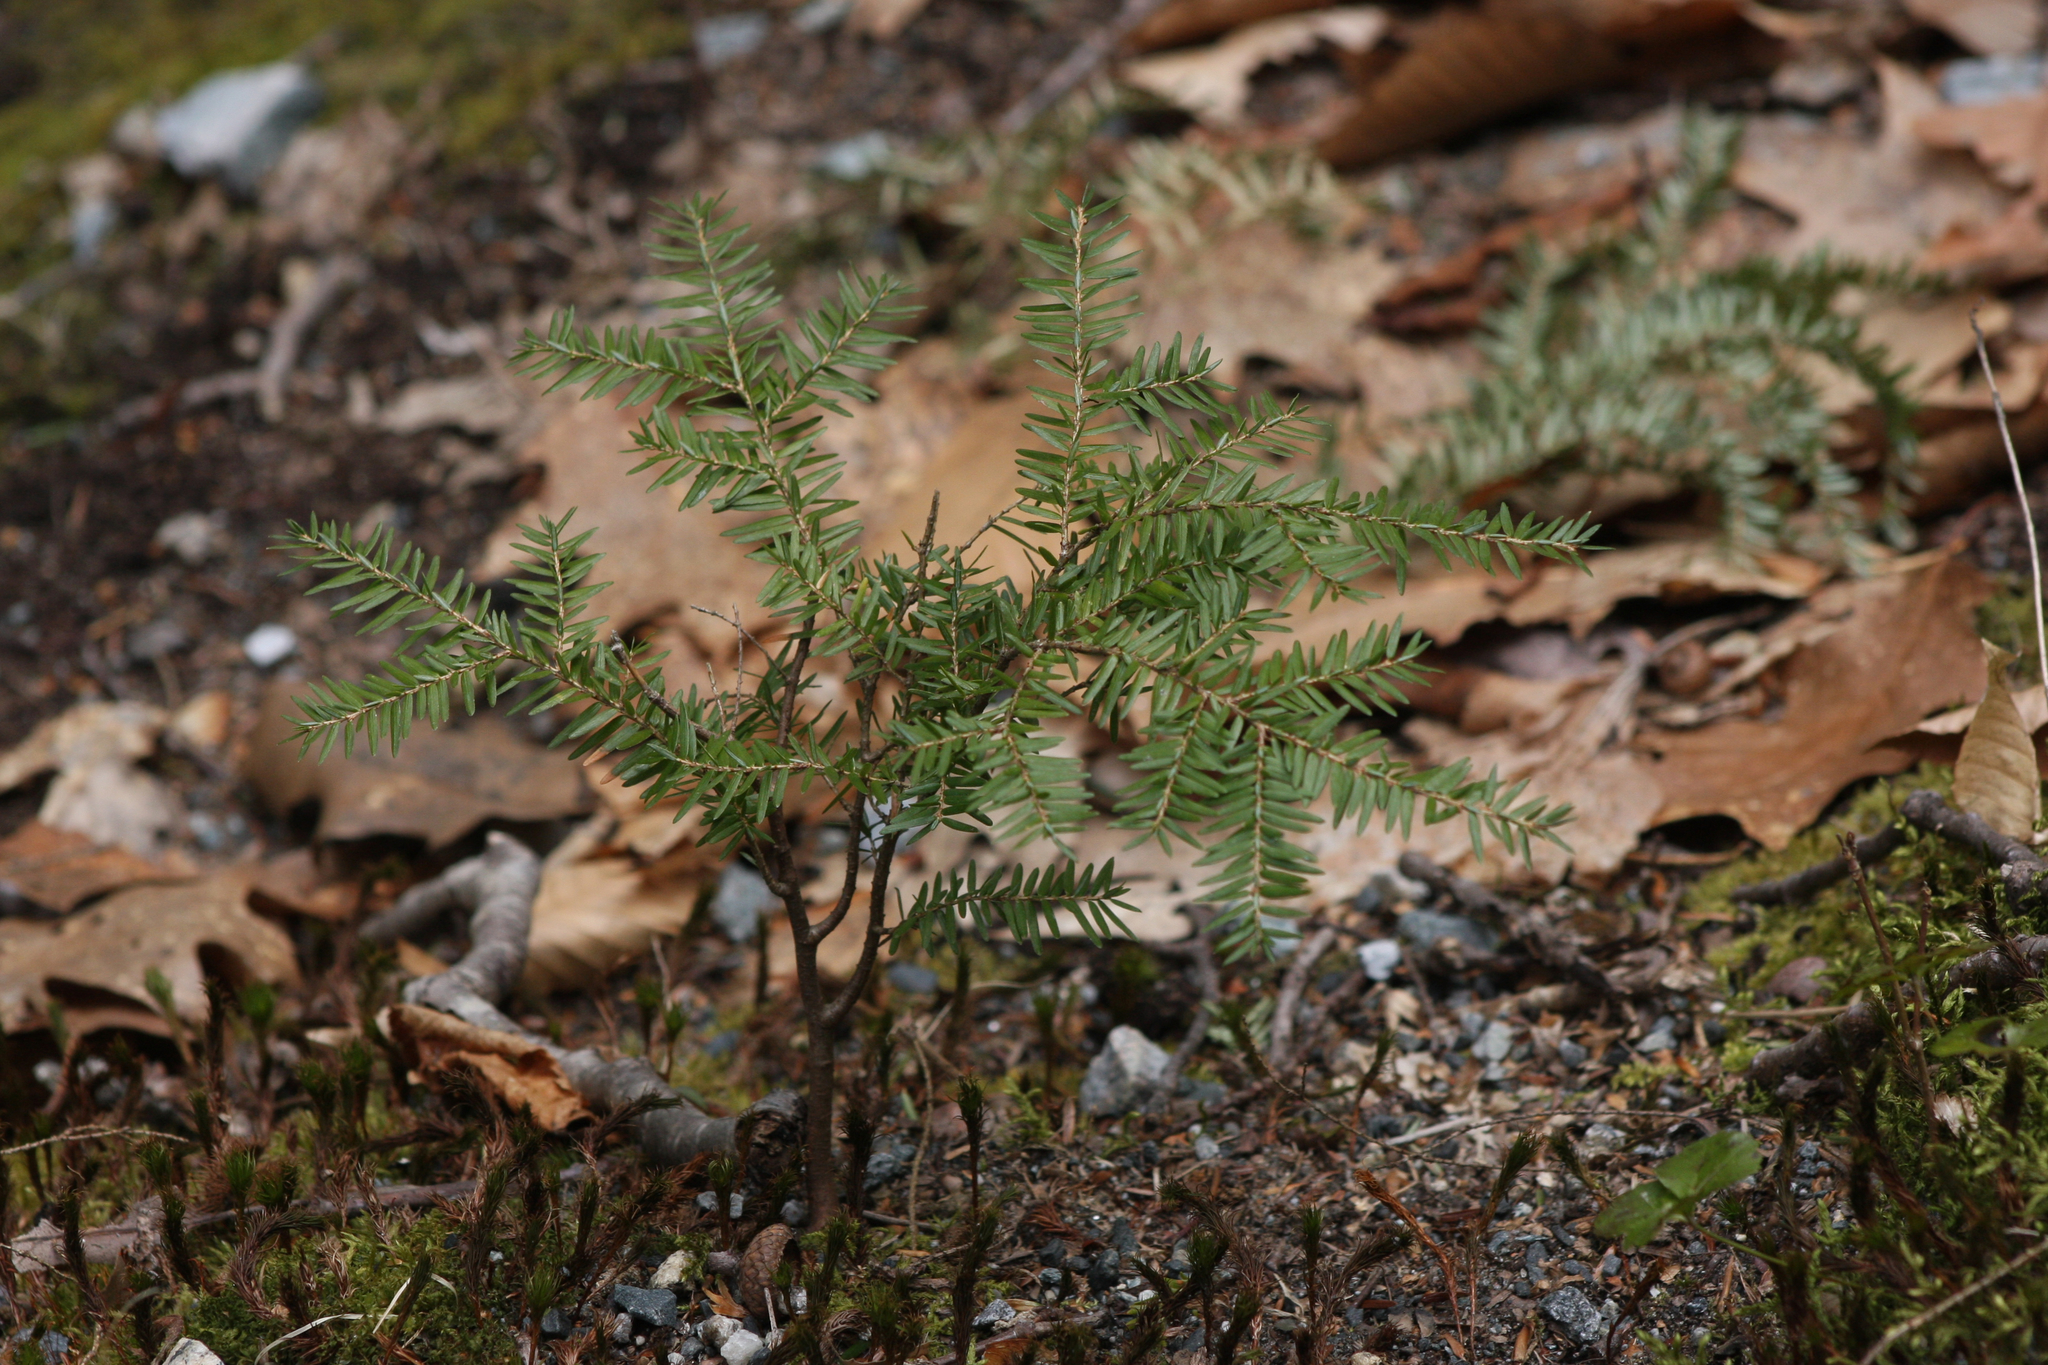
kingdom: Plantae
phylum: Tracheophyta
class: Pinopsida
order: Pinales
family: Pinaceae
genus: Tsuga
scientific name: Tsuga canadensis
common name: Eastern hemlock
